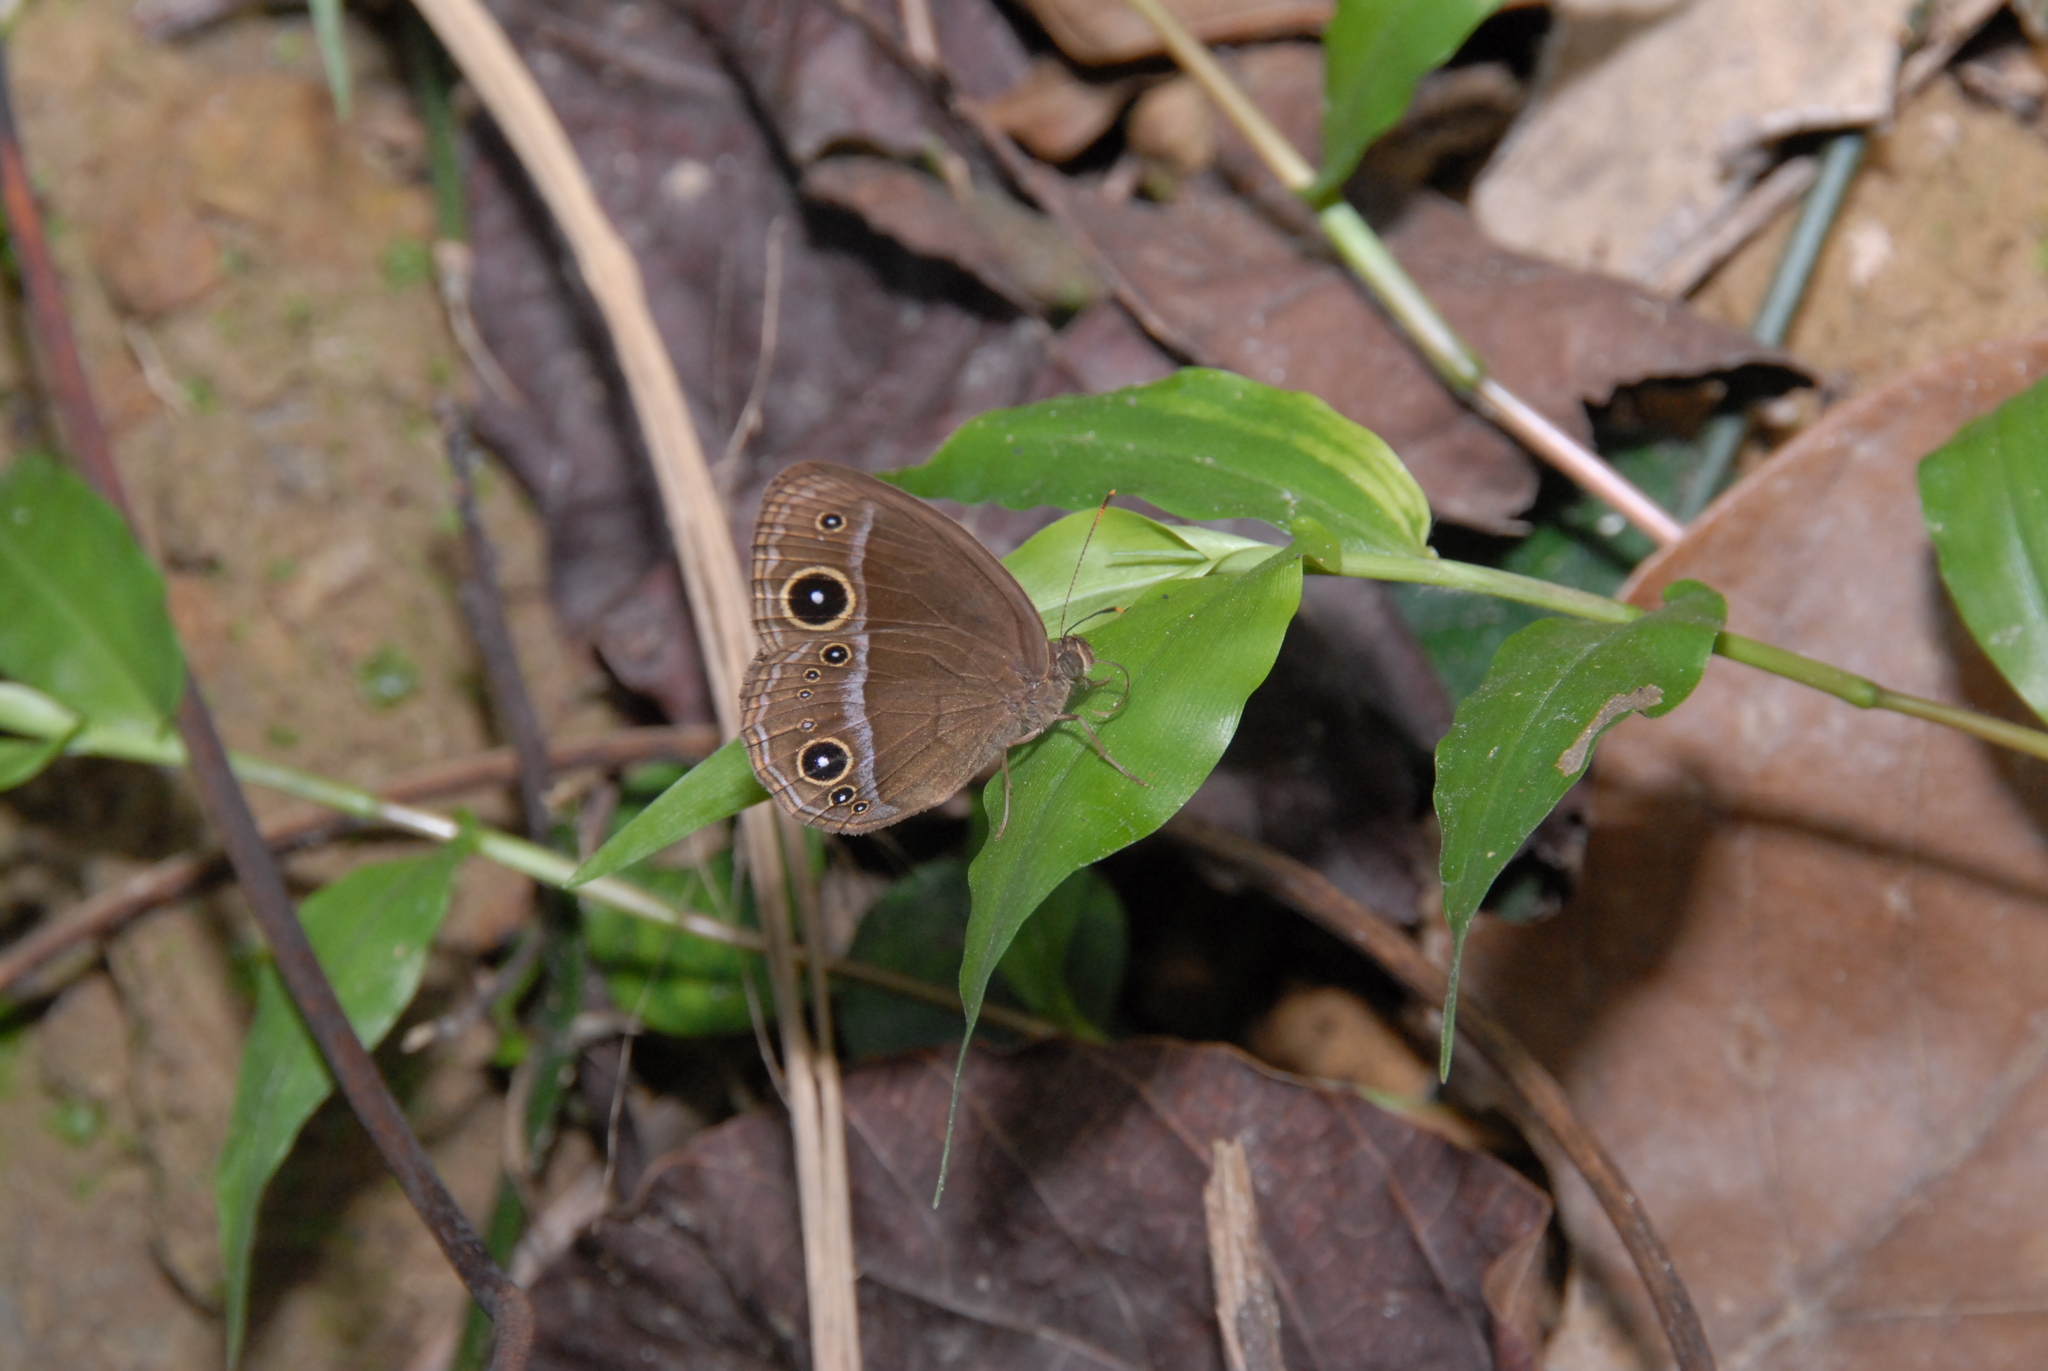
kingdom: Animalia
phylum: Arthropoda
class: Insecta
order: Lepidoptera
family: Nymphalidae
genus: Mycalesis
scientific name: Mycalesis francisca
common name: Lilacine bushbrown
